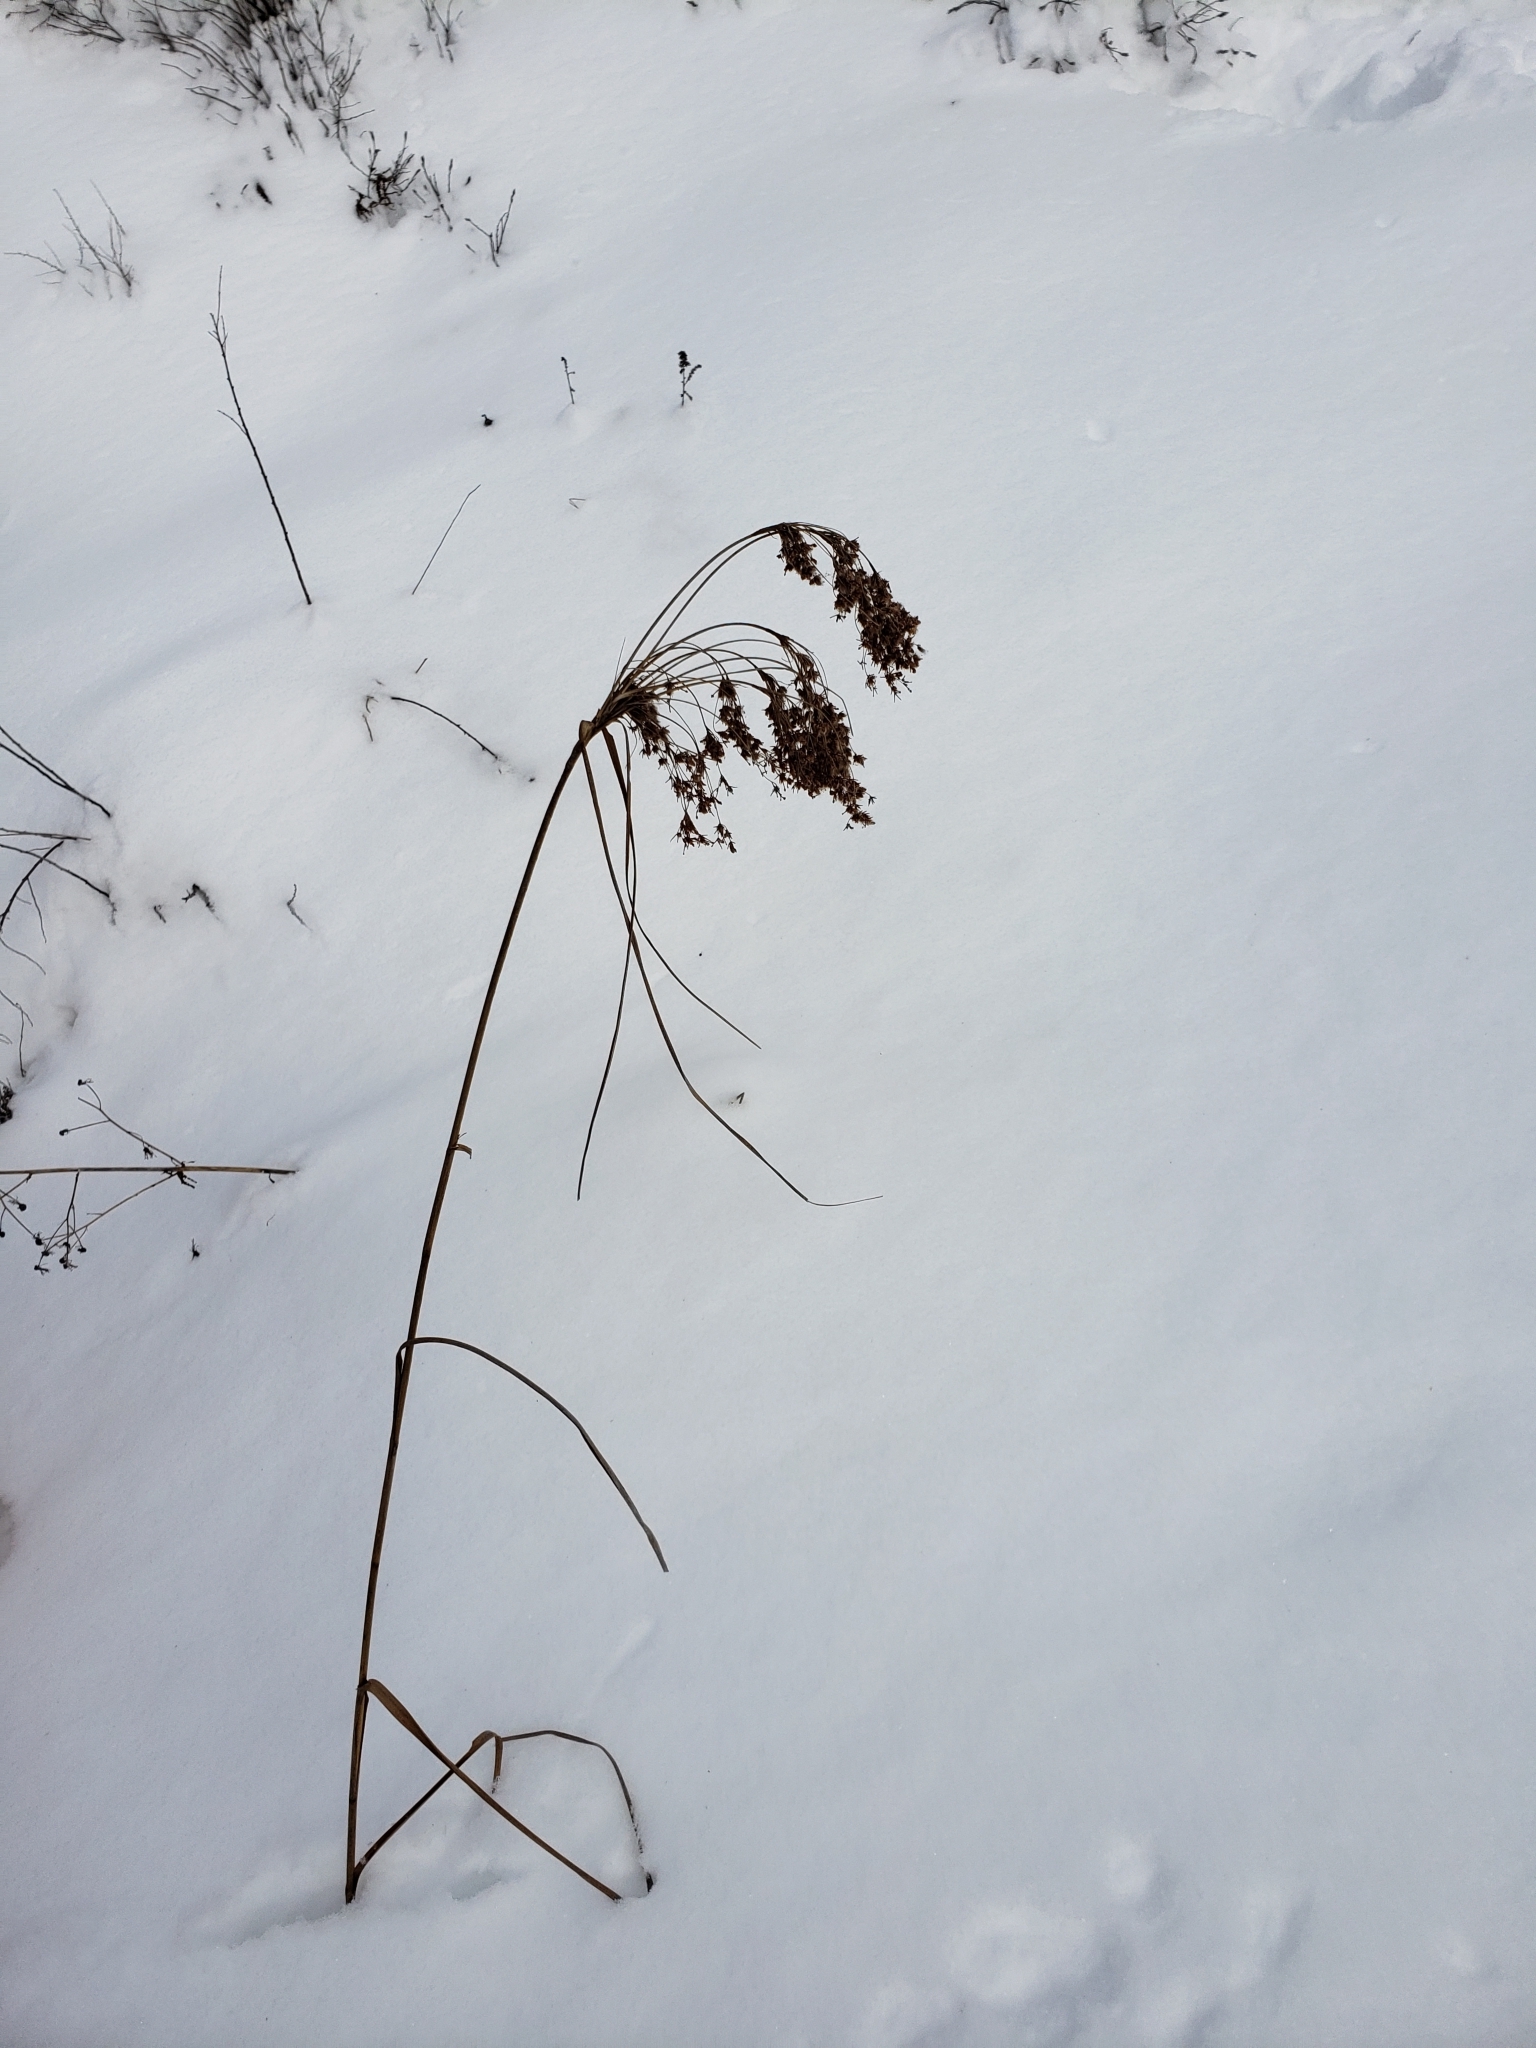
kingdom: Plantae
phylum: Tracheophyta
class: Liliopsida
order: Poales
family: Cyperaceae
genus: Scirpus
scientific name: Scirpus cyperinus
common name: Black-sheathed bulrush
